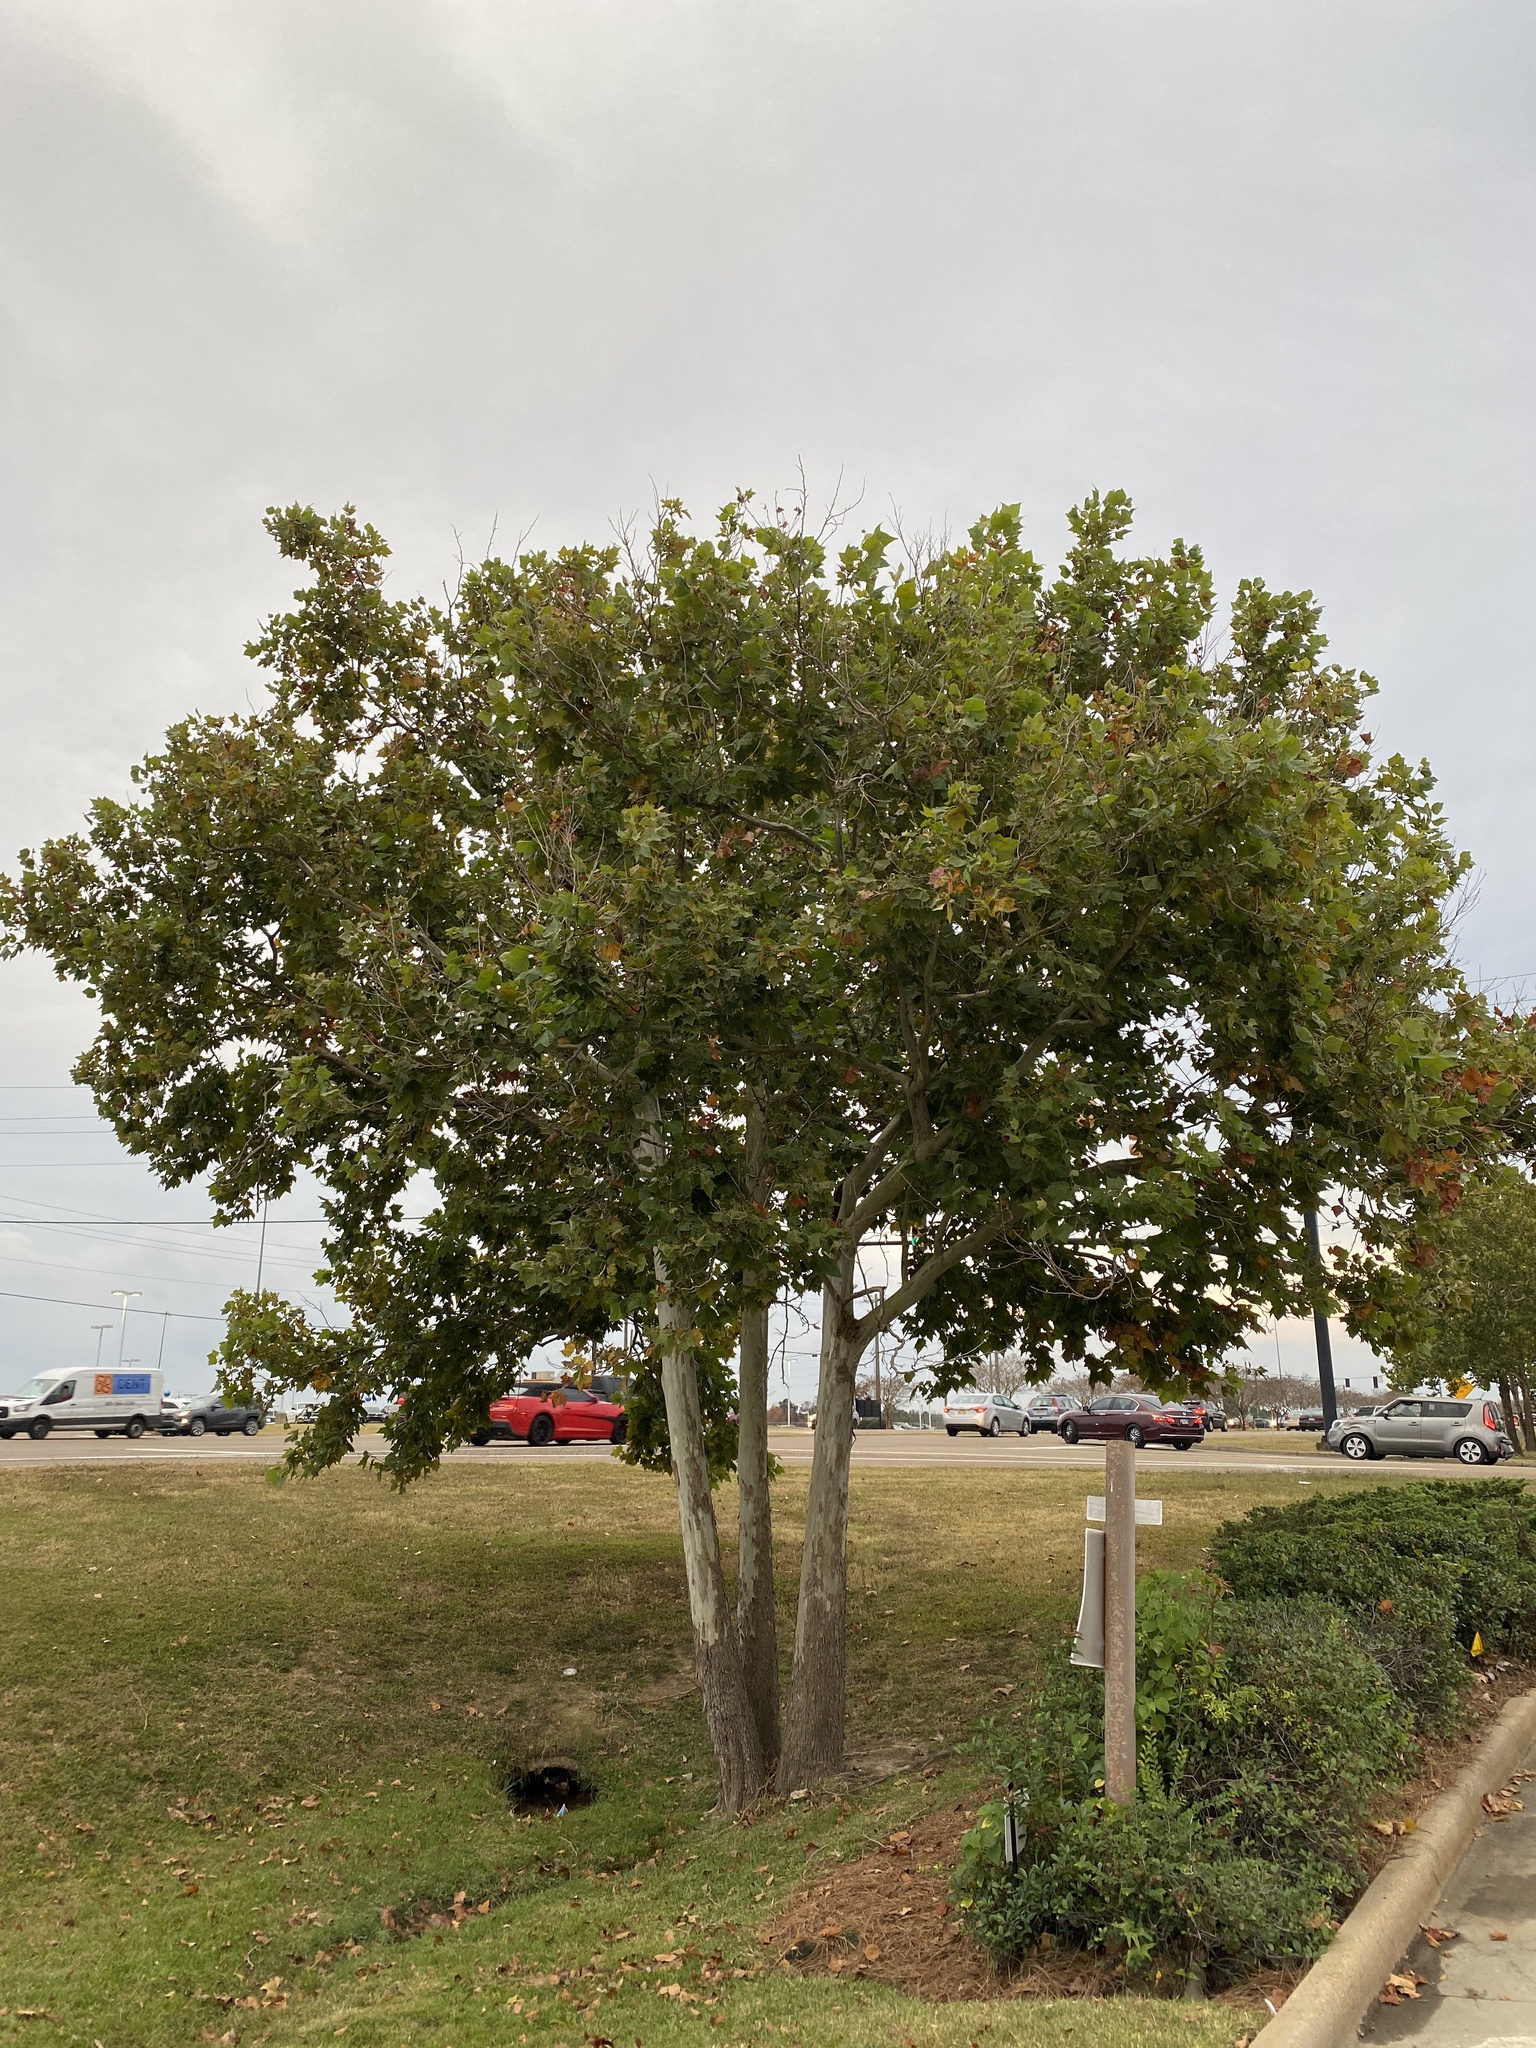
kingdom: Plantae
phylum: Tracheophyta
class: Magnoliopsida
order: Proteales
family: Platanaceae
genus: Platanus
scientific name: Platanus occidentalis
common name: American sycamore
